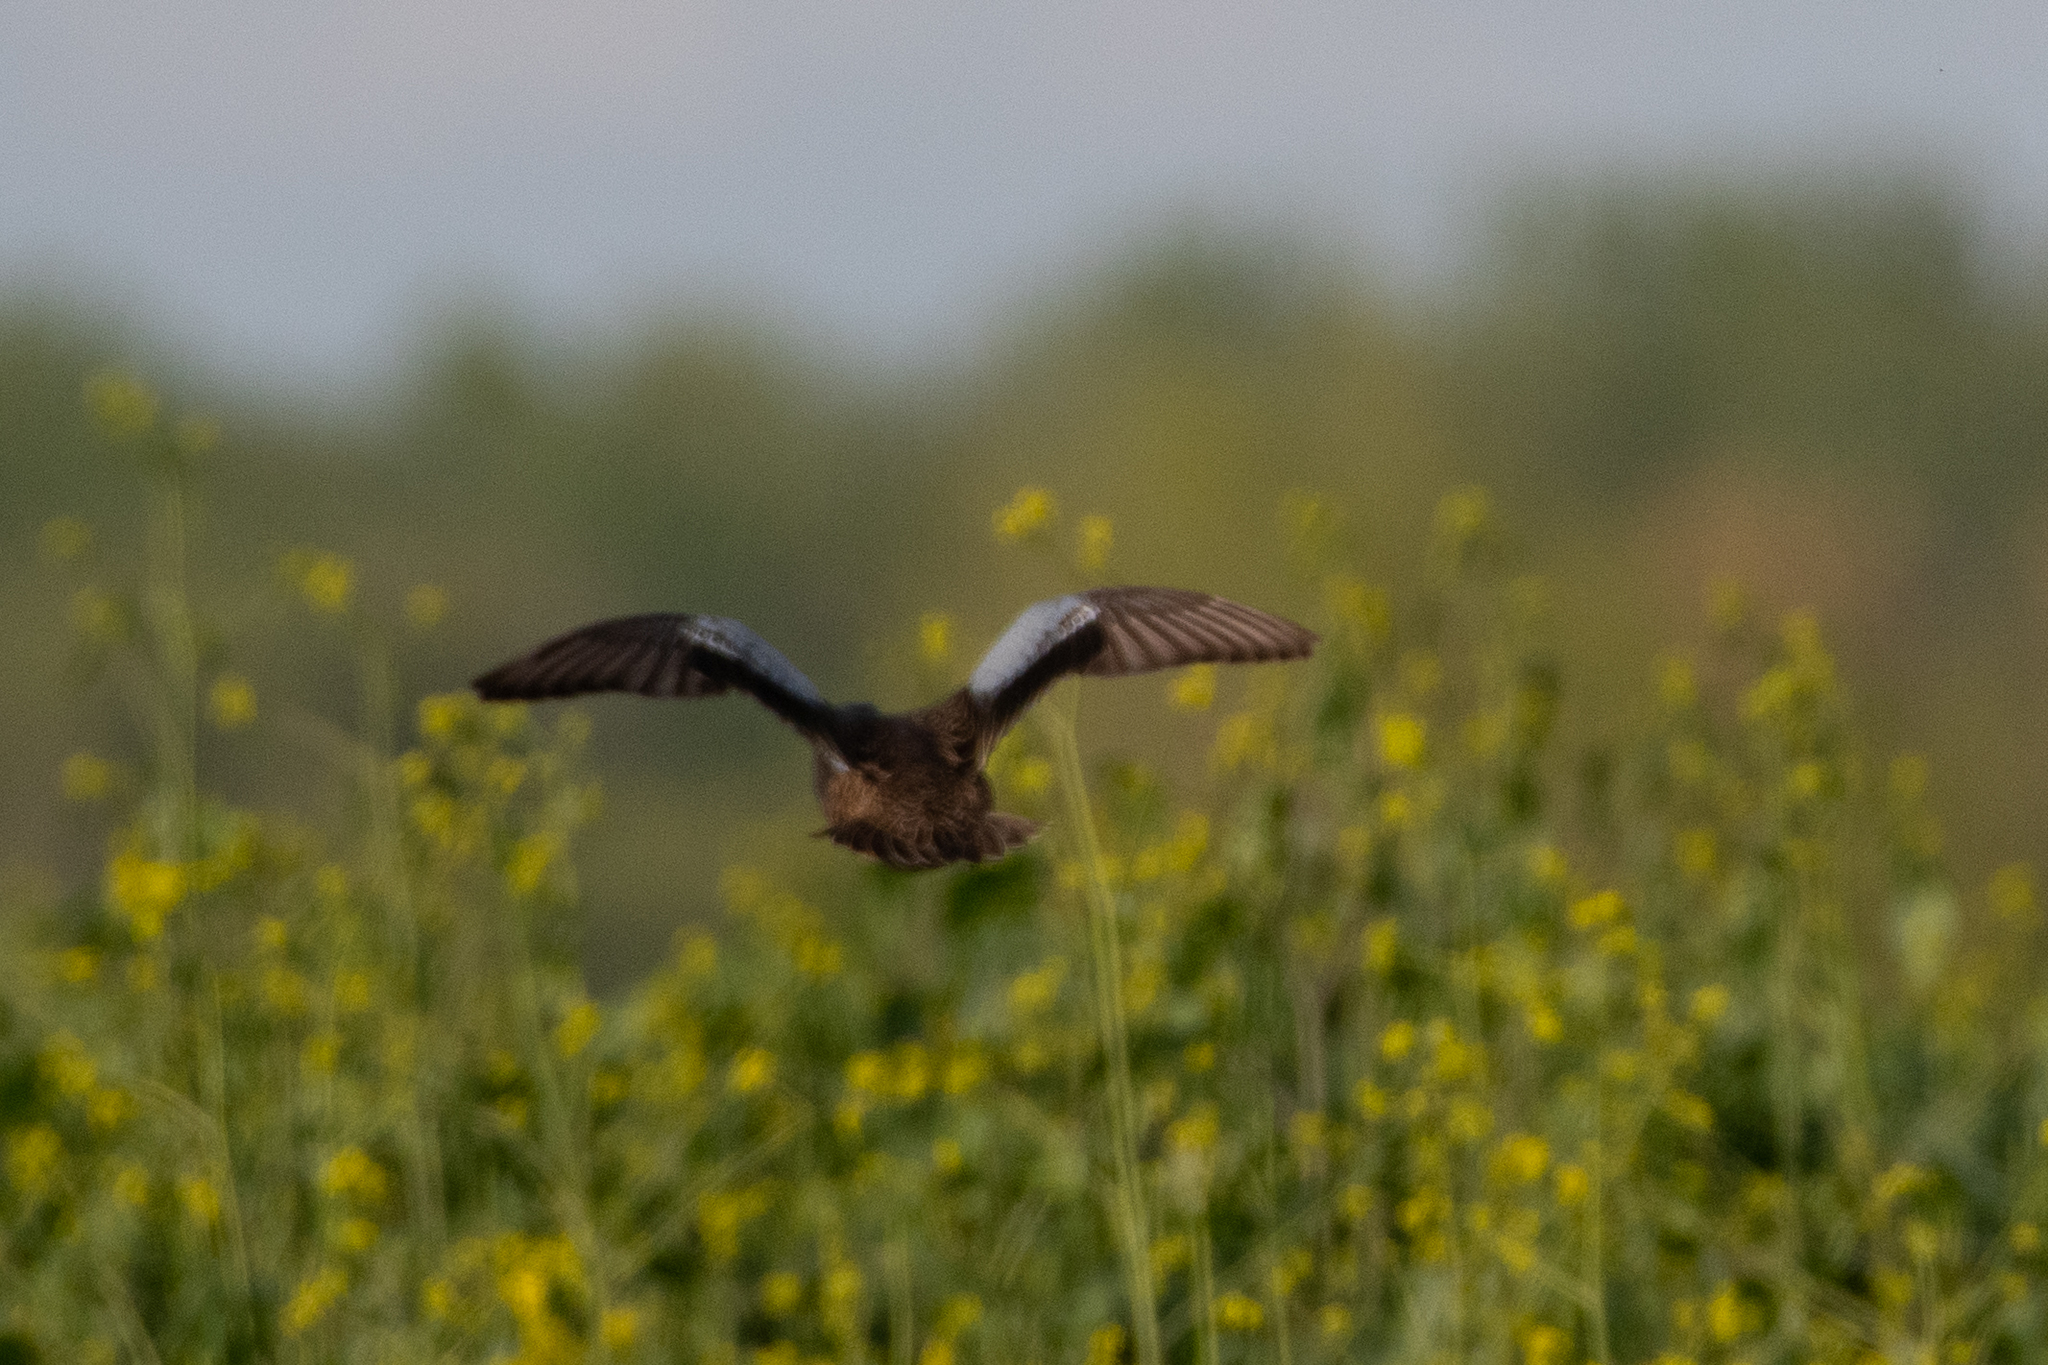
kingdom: Animalia
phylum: Chordata
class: Aves
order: Anseriformes
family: Anatidae
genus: Spatula
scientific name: Spatula cyanoptera
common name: Cinnamon teal
